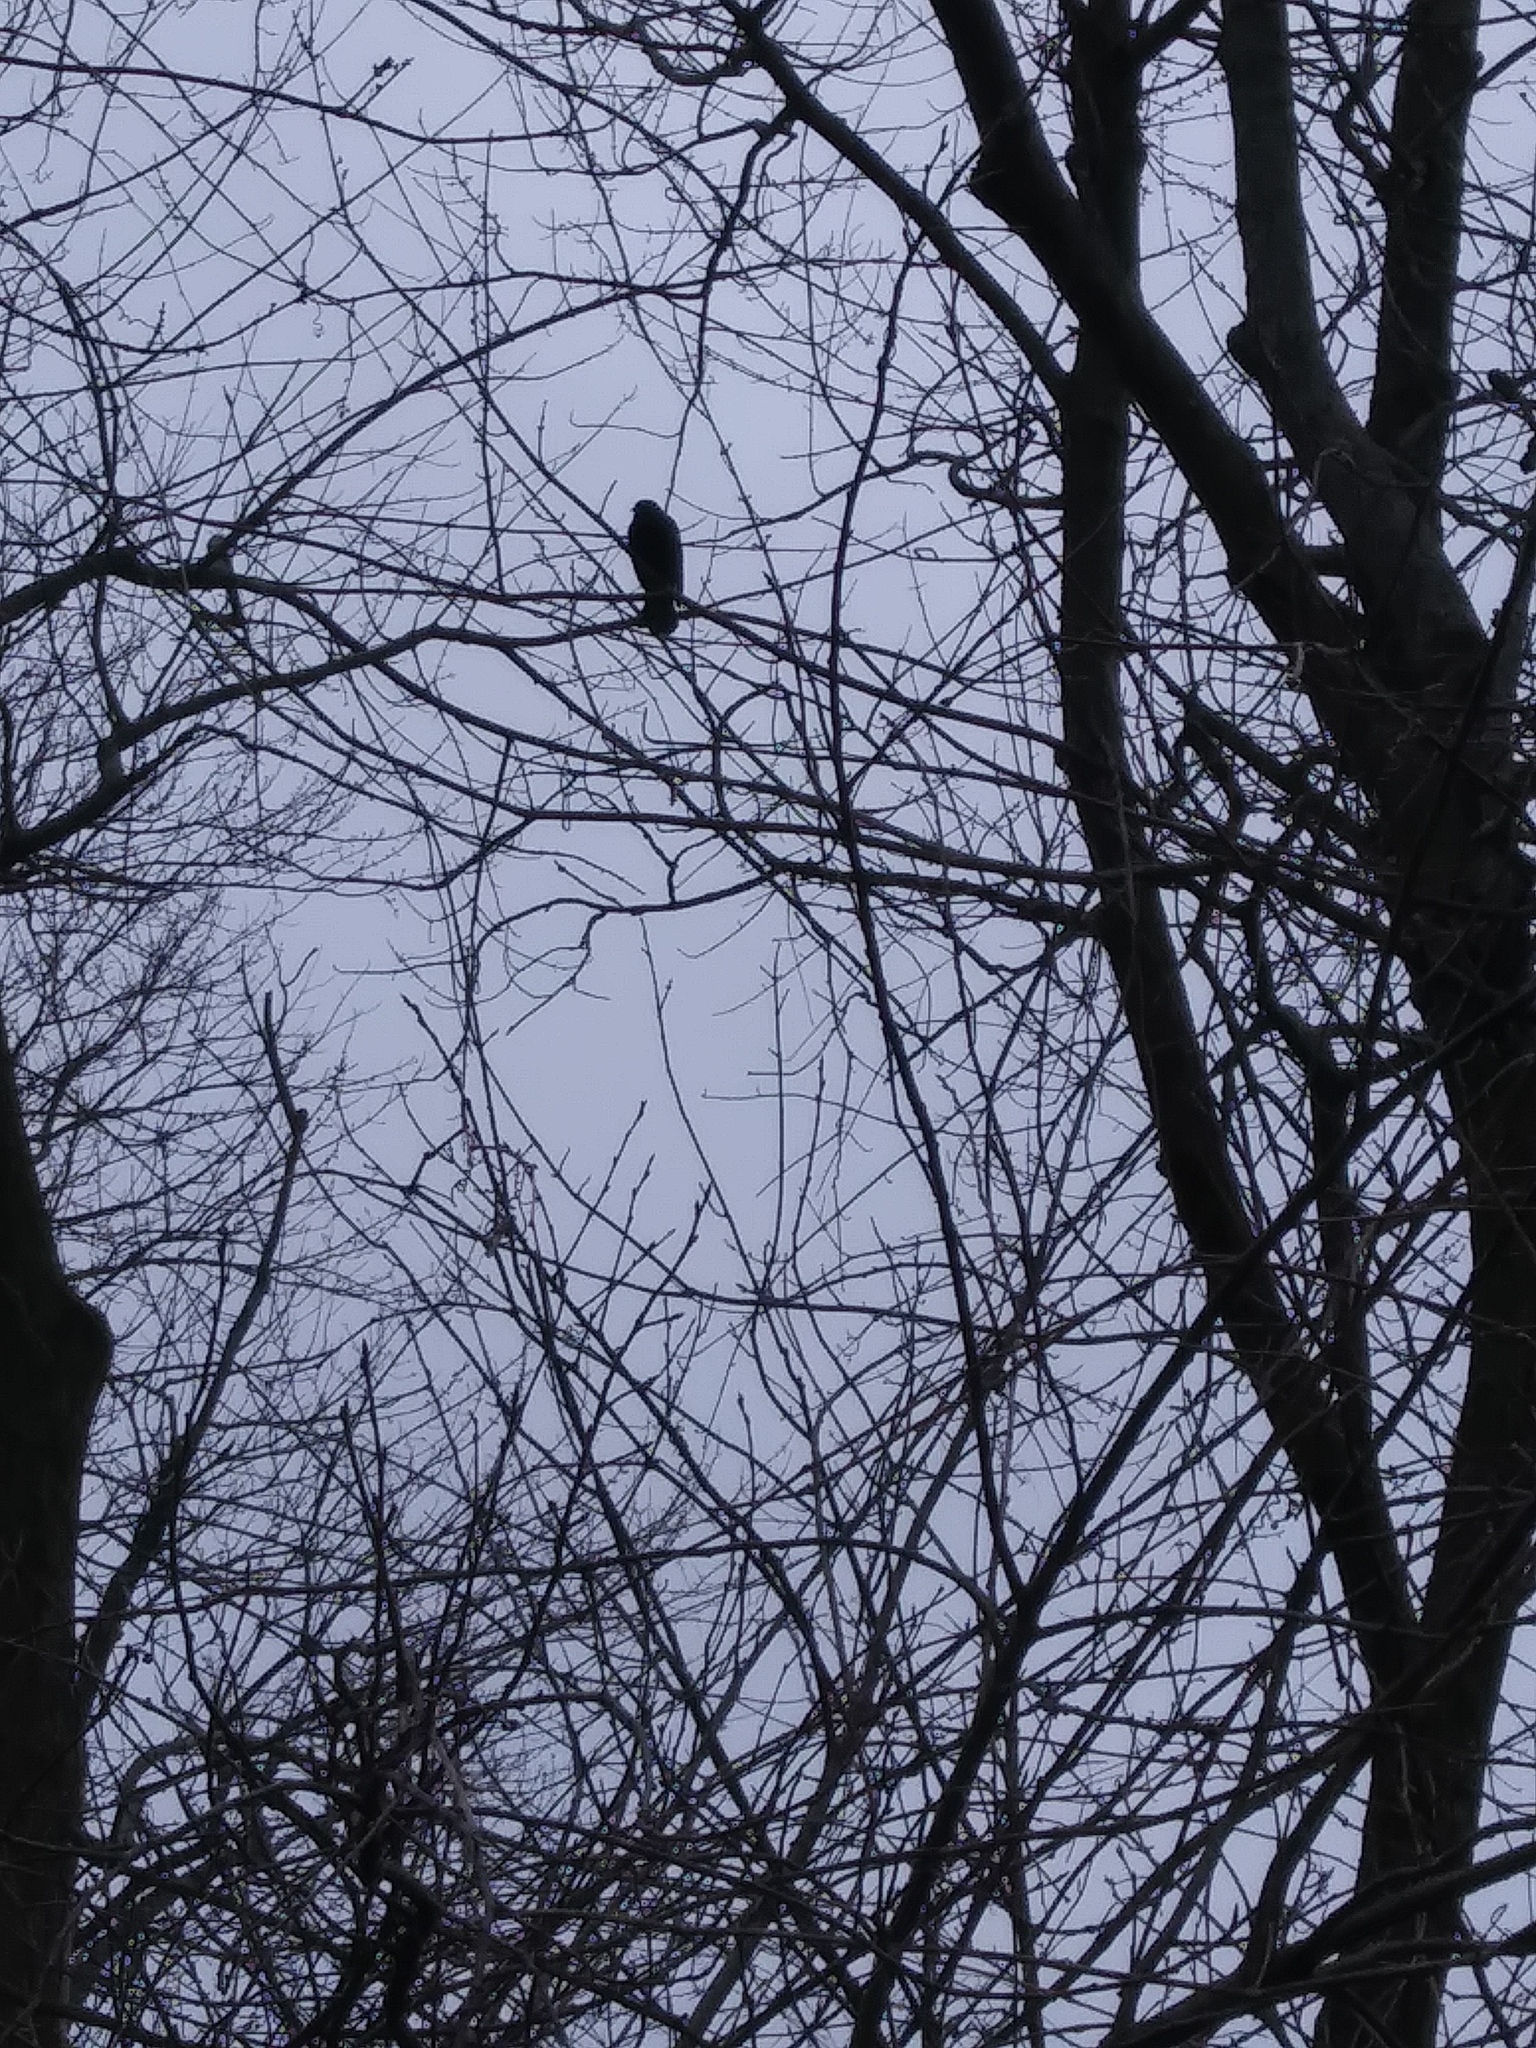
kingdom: Animalia
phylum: Chordata
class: Aves
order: Passeriformes
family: Icteridae
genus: Agelaius
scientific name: Agelaius phoeniceus
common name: Red-winged blackbird
